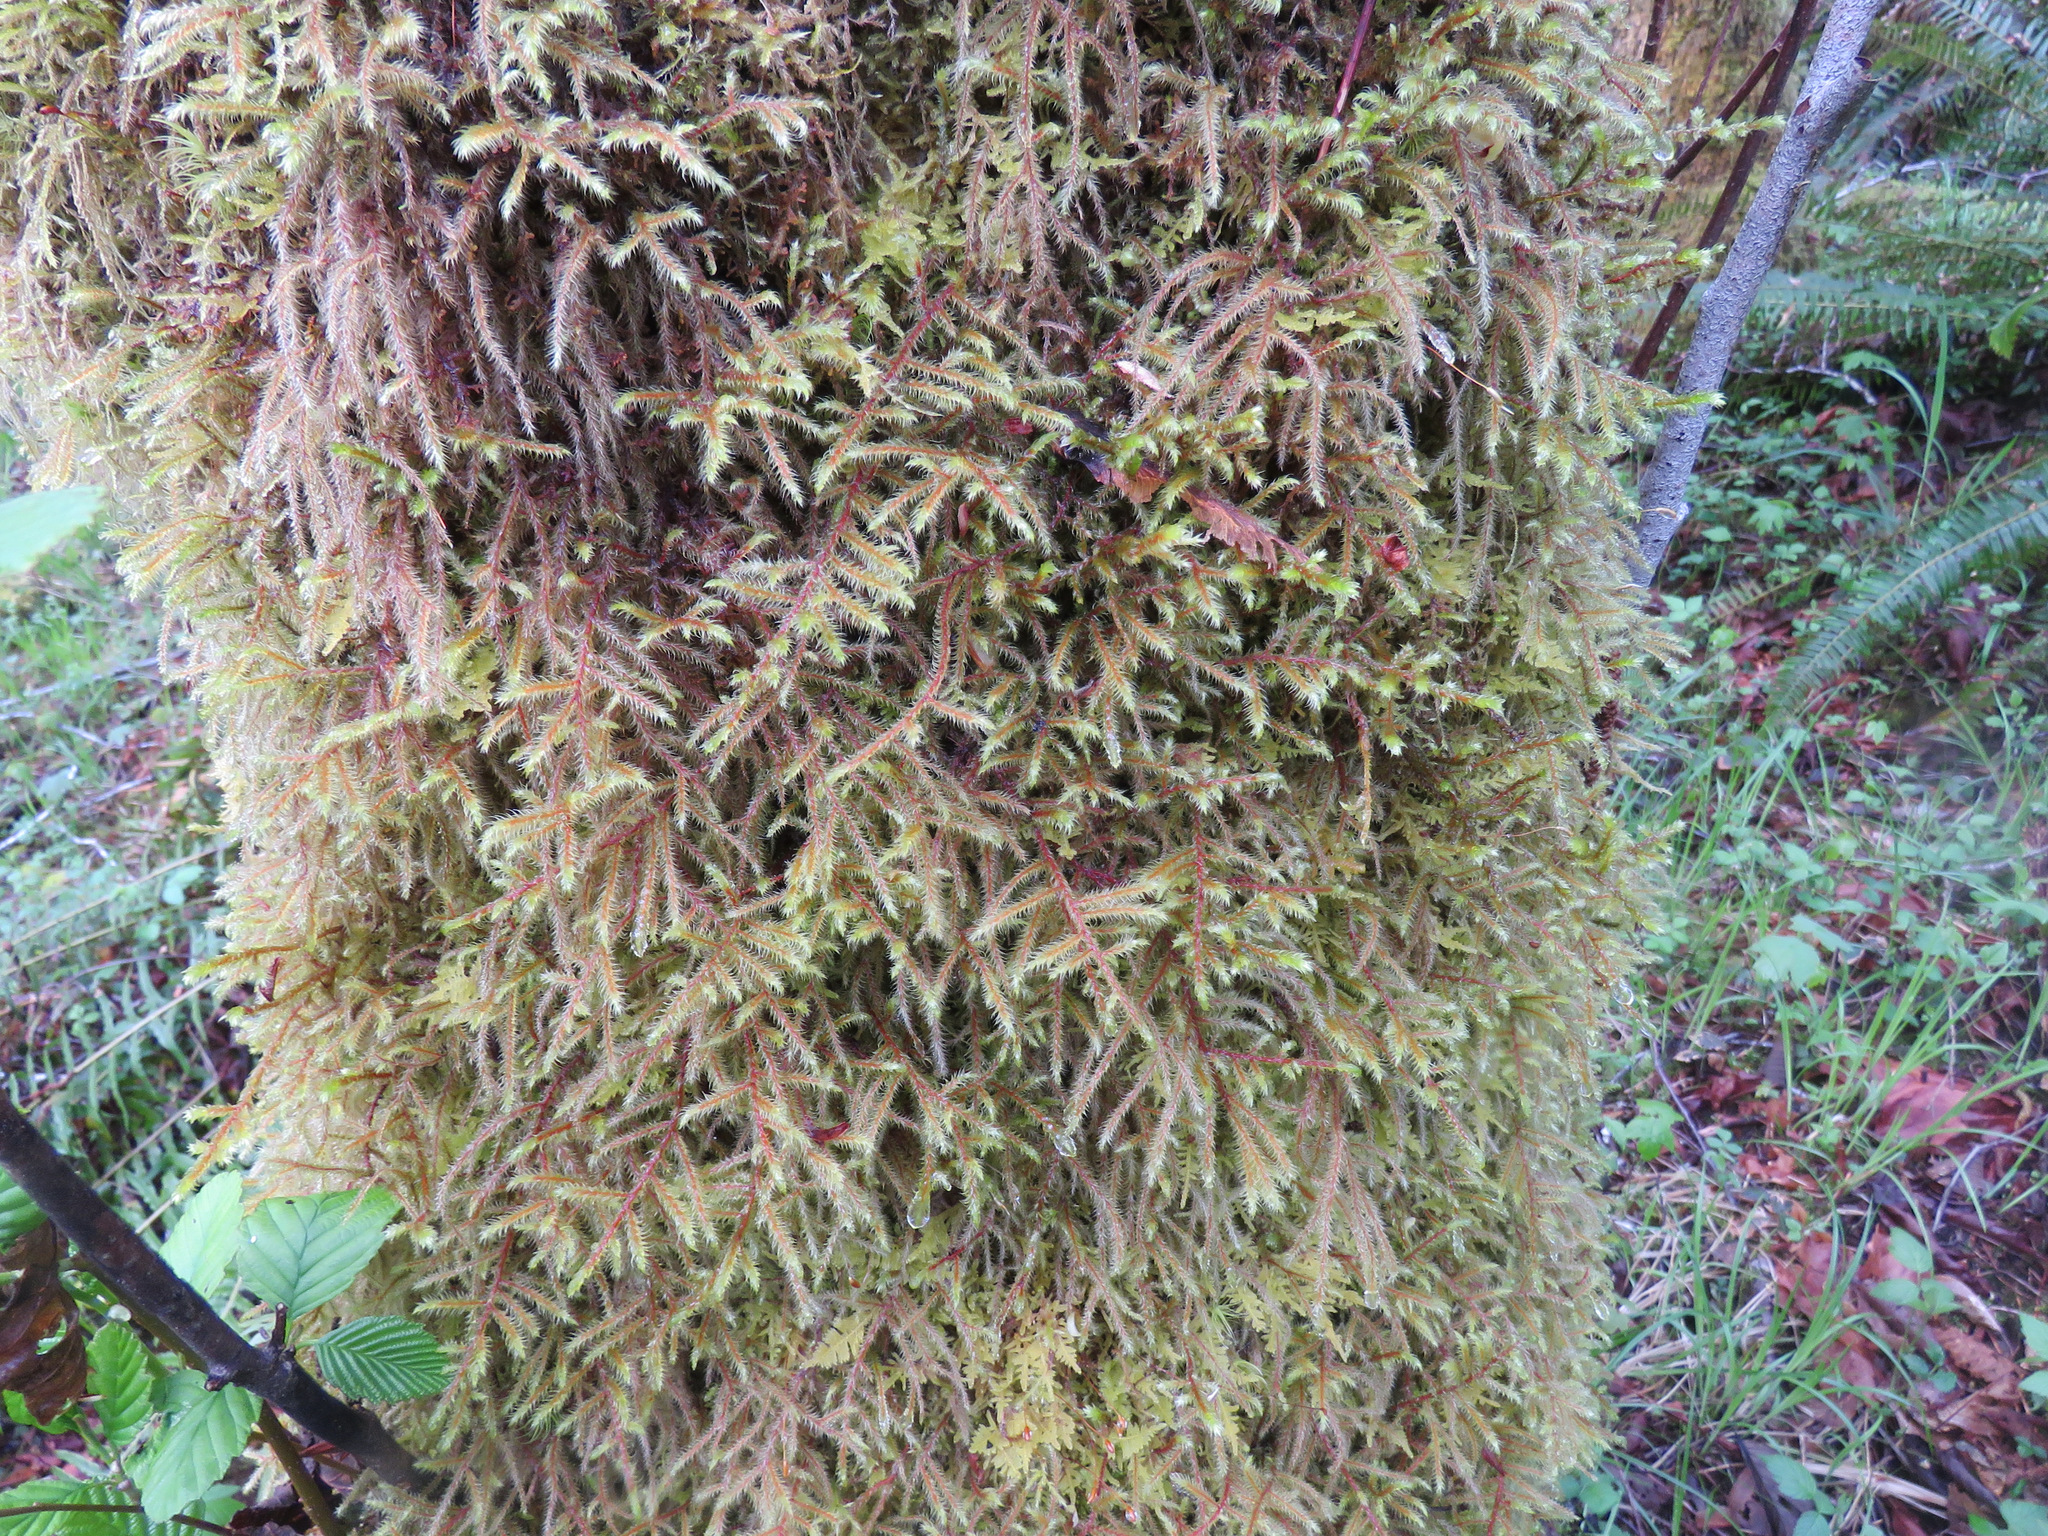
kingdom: Plantae
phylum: Bryophyta
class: Bryopsida
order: Hypnales
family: Hylocomiaceae
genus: Rhytidiadelphus
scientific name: Rhytidiadelphus loreus
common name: Lanky moss
